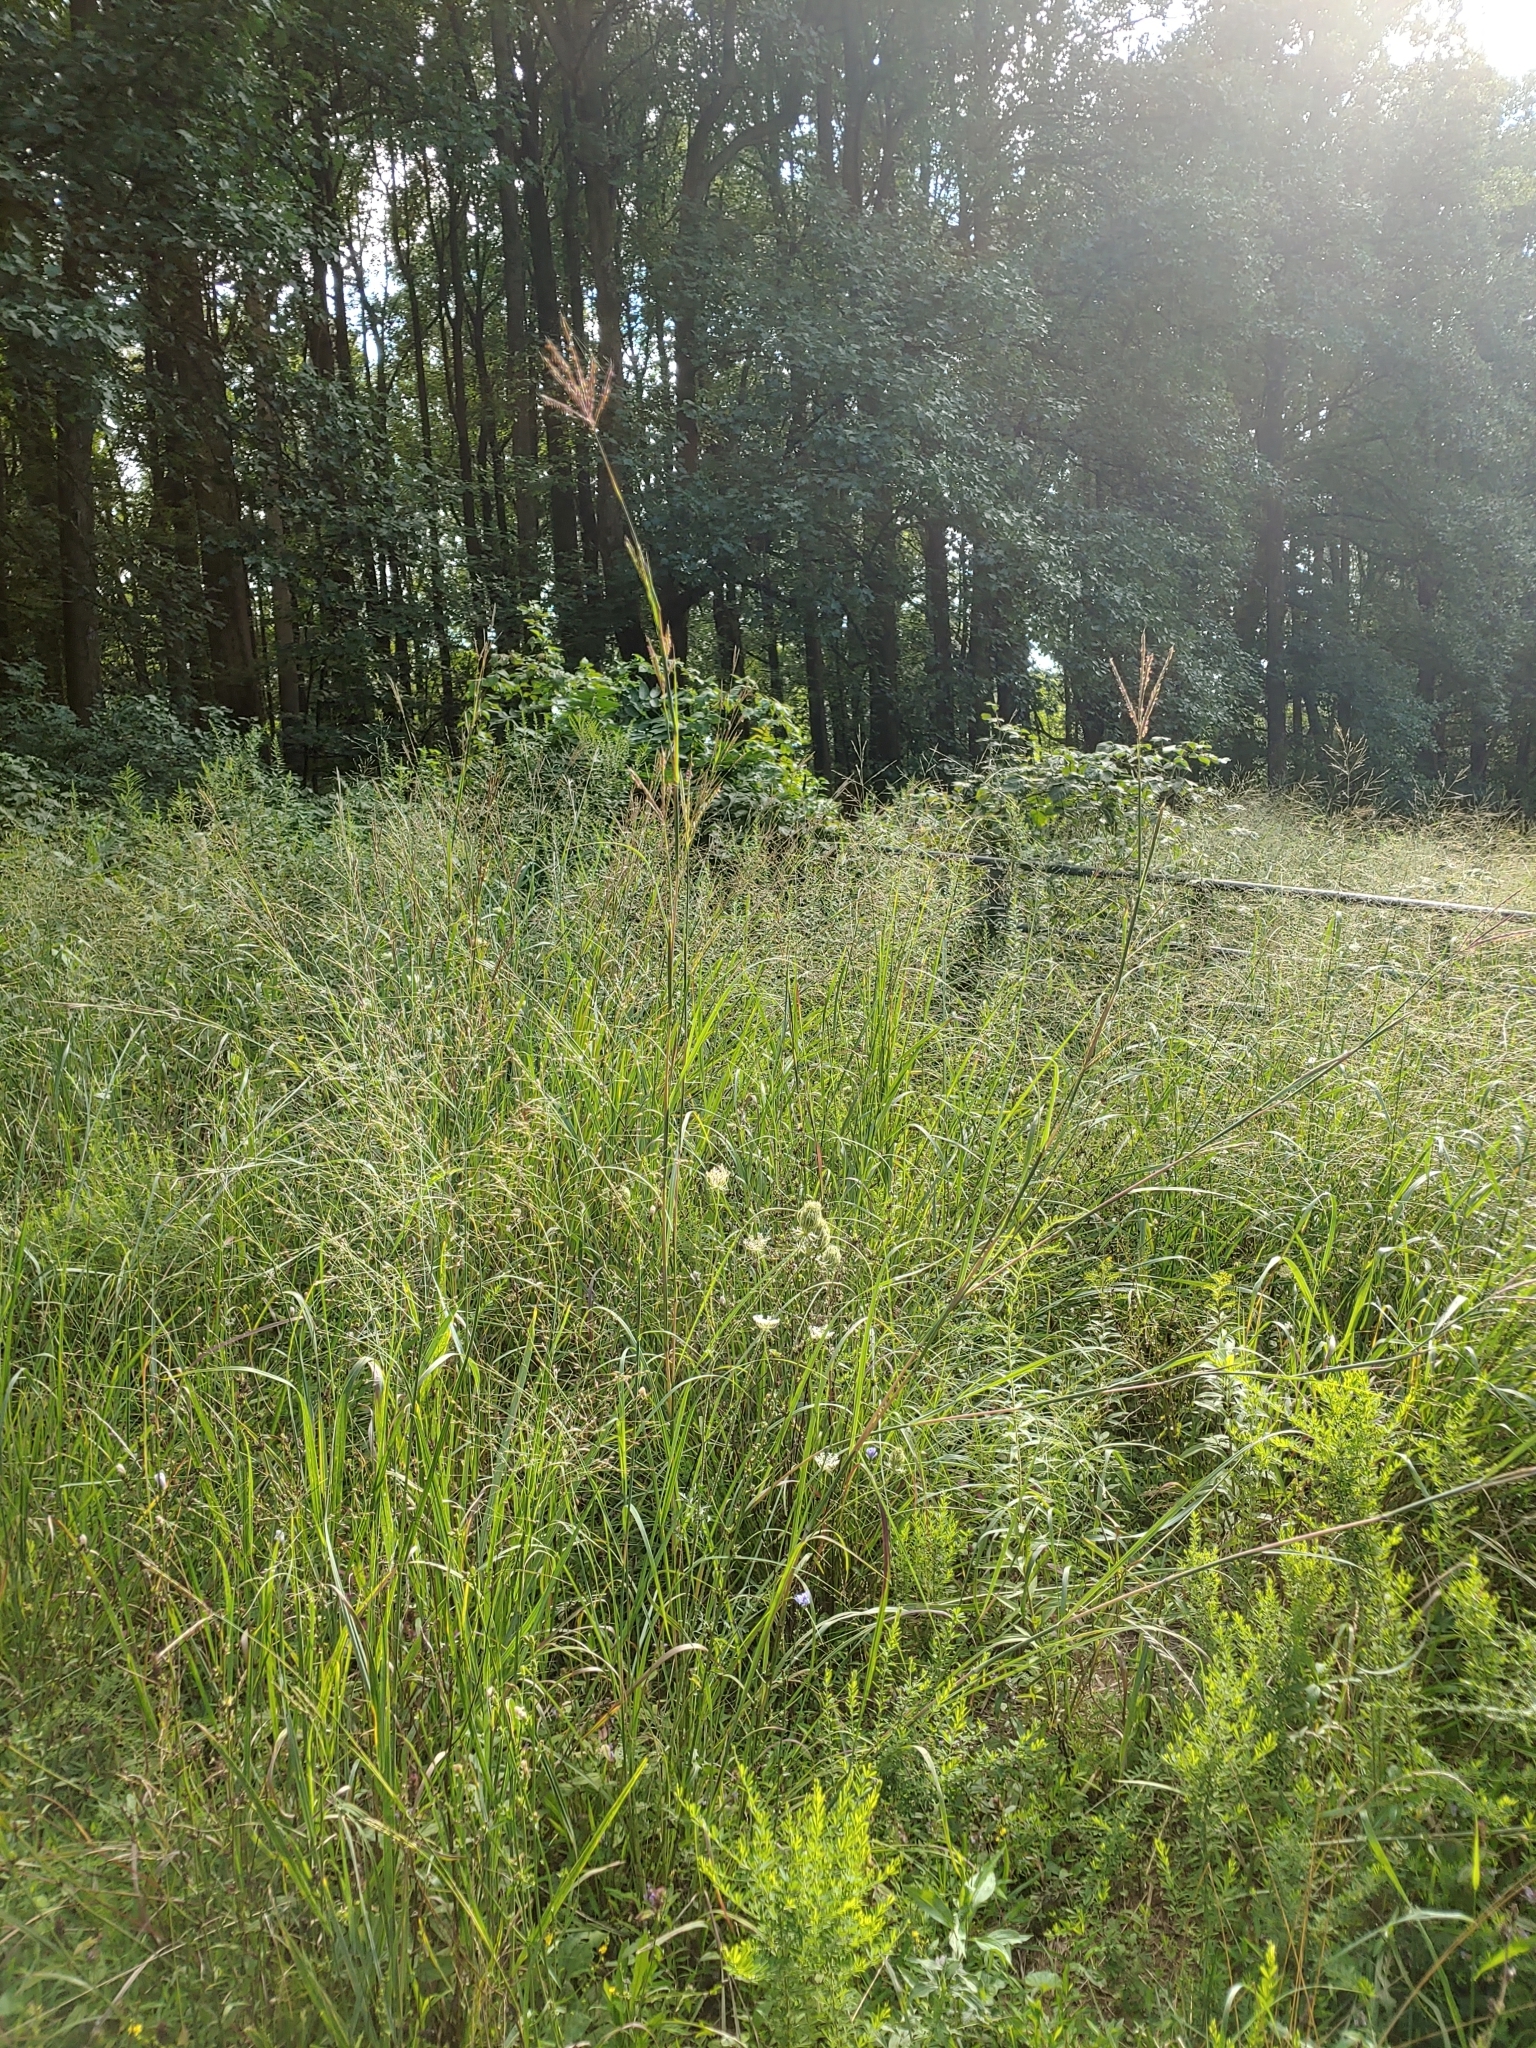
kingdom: Plantae
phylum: Tracheophyta
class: Liliopsida
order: Poales
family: Poaceae
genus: Andropogon
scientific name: Andropogon gerardi
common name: Big bluestem
